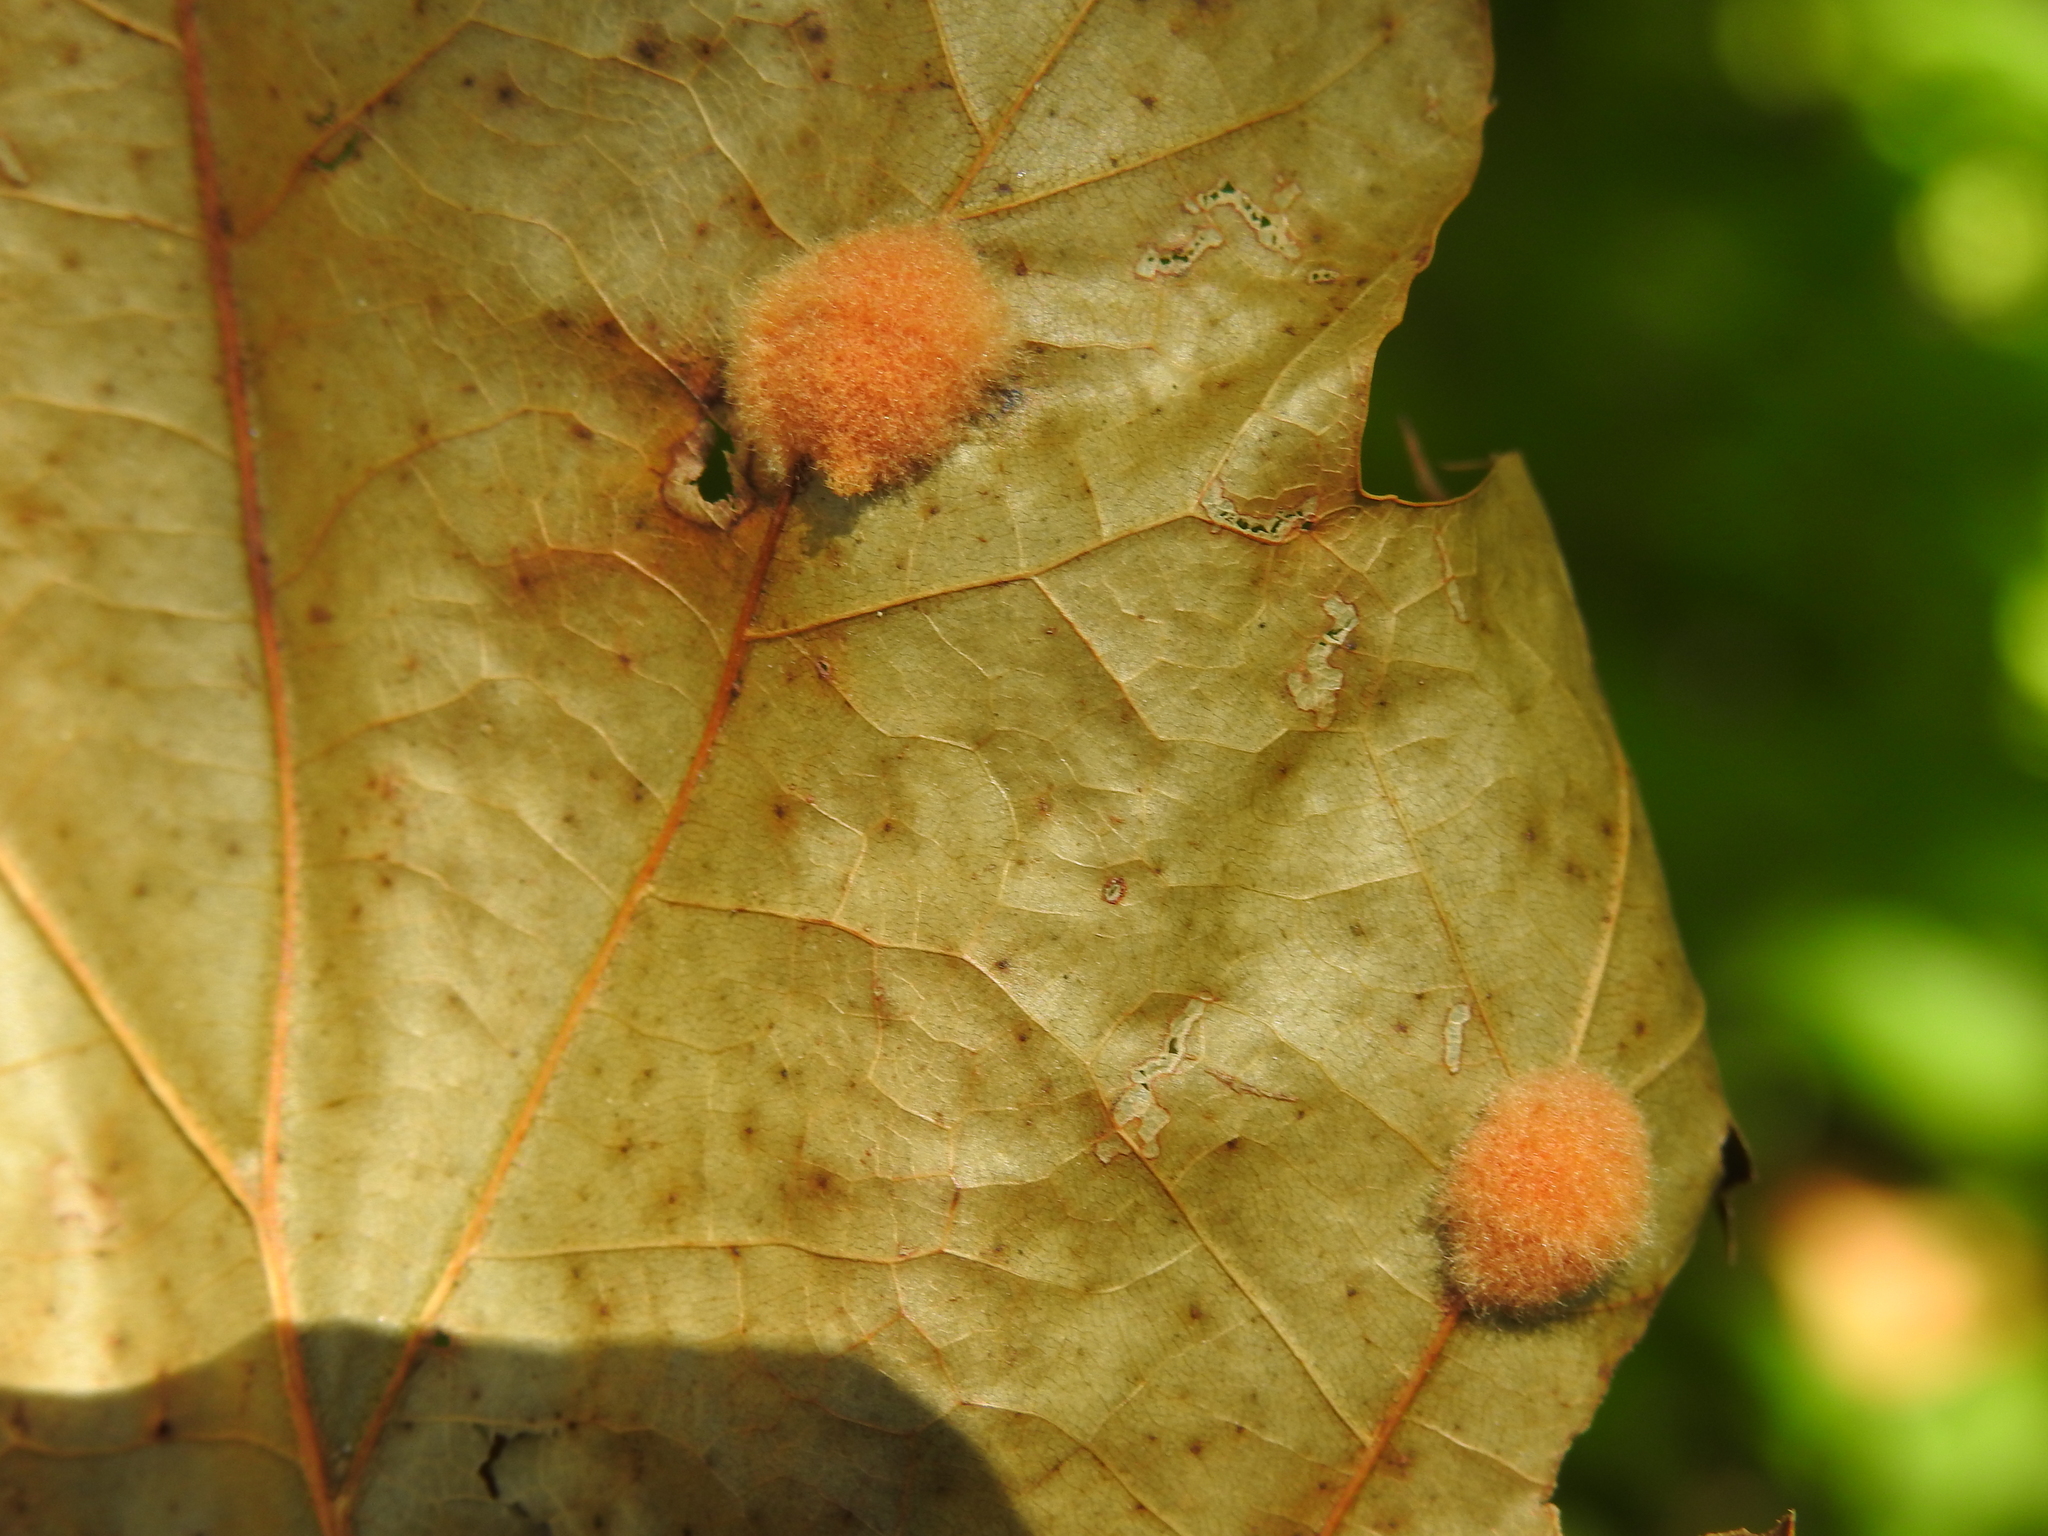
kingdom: Animalia
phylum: Arthropoda
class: Insecta
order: Hymenoptera
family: Cynipidae
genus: Callirhytis
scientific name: Callirhytis
